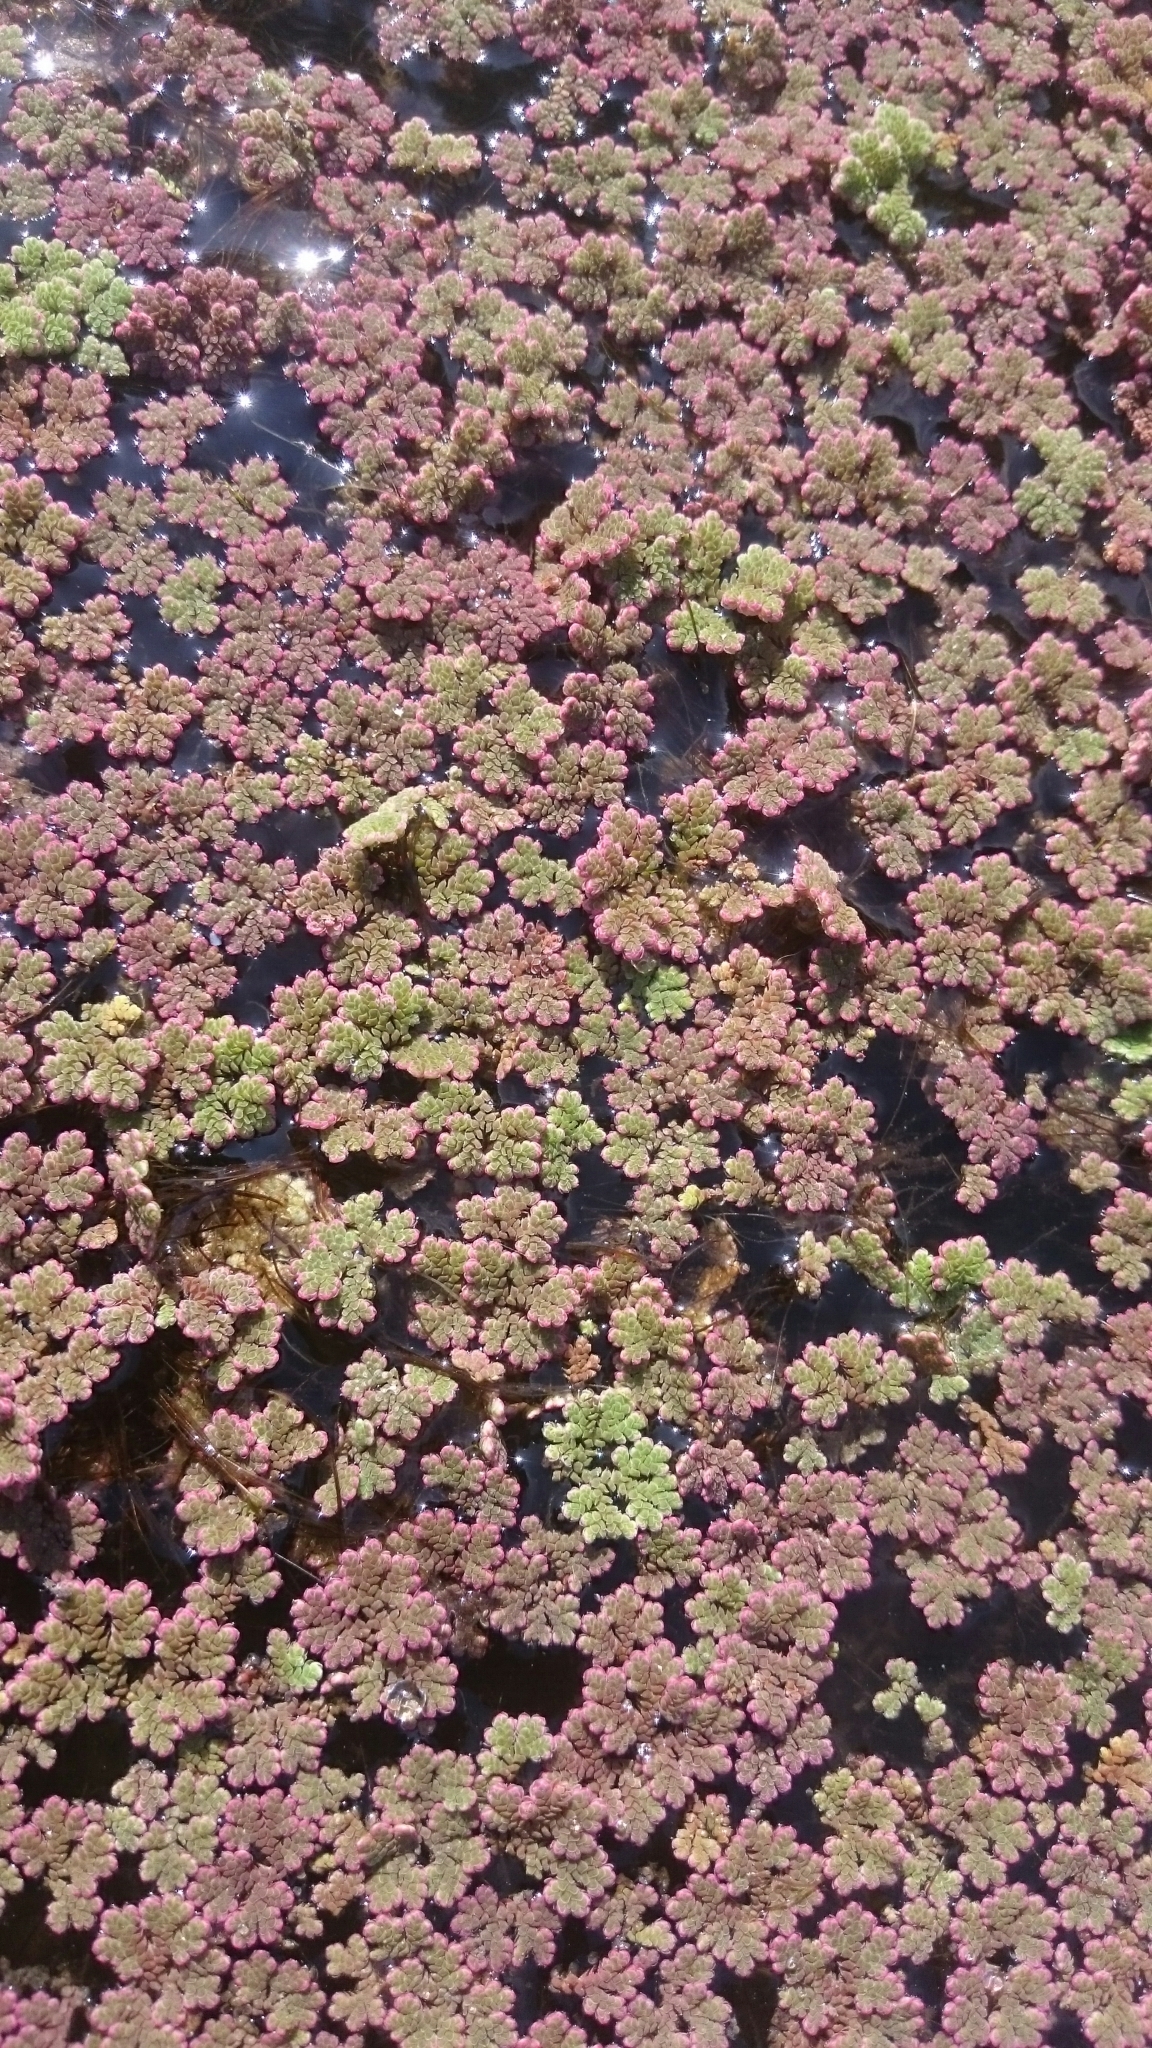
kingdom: Plantae
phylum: Tracheophyta
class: Polypodiopsida
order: Salviniales
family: Salviniaceae
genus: Azolla
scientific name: Azolla filiculoides
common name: Water fern
